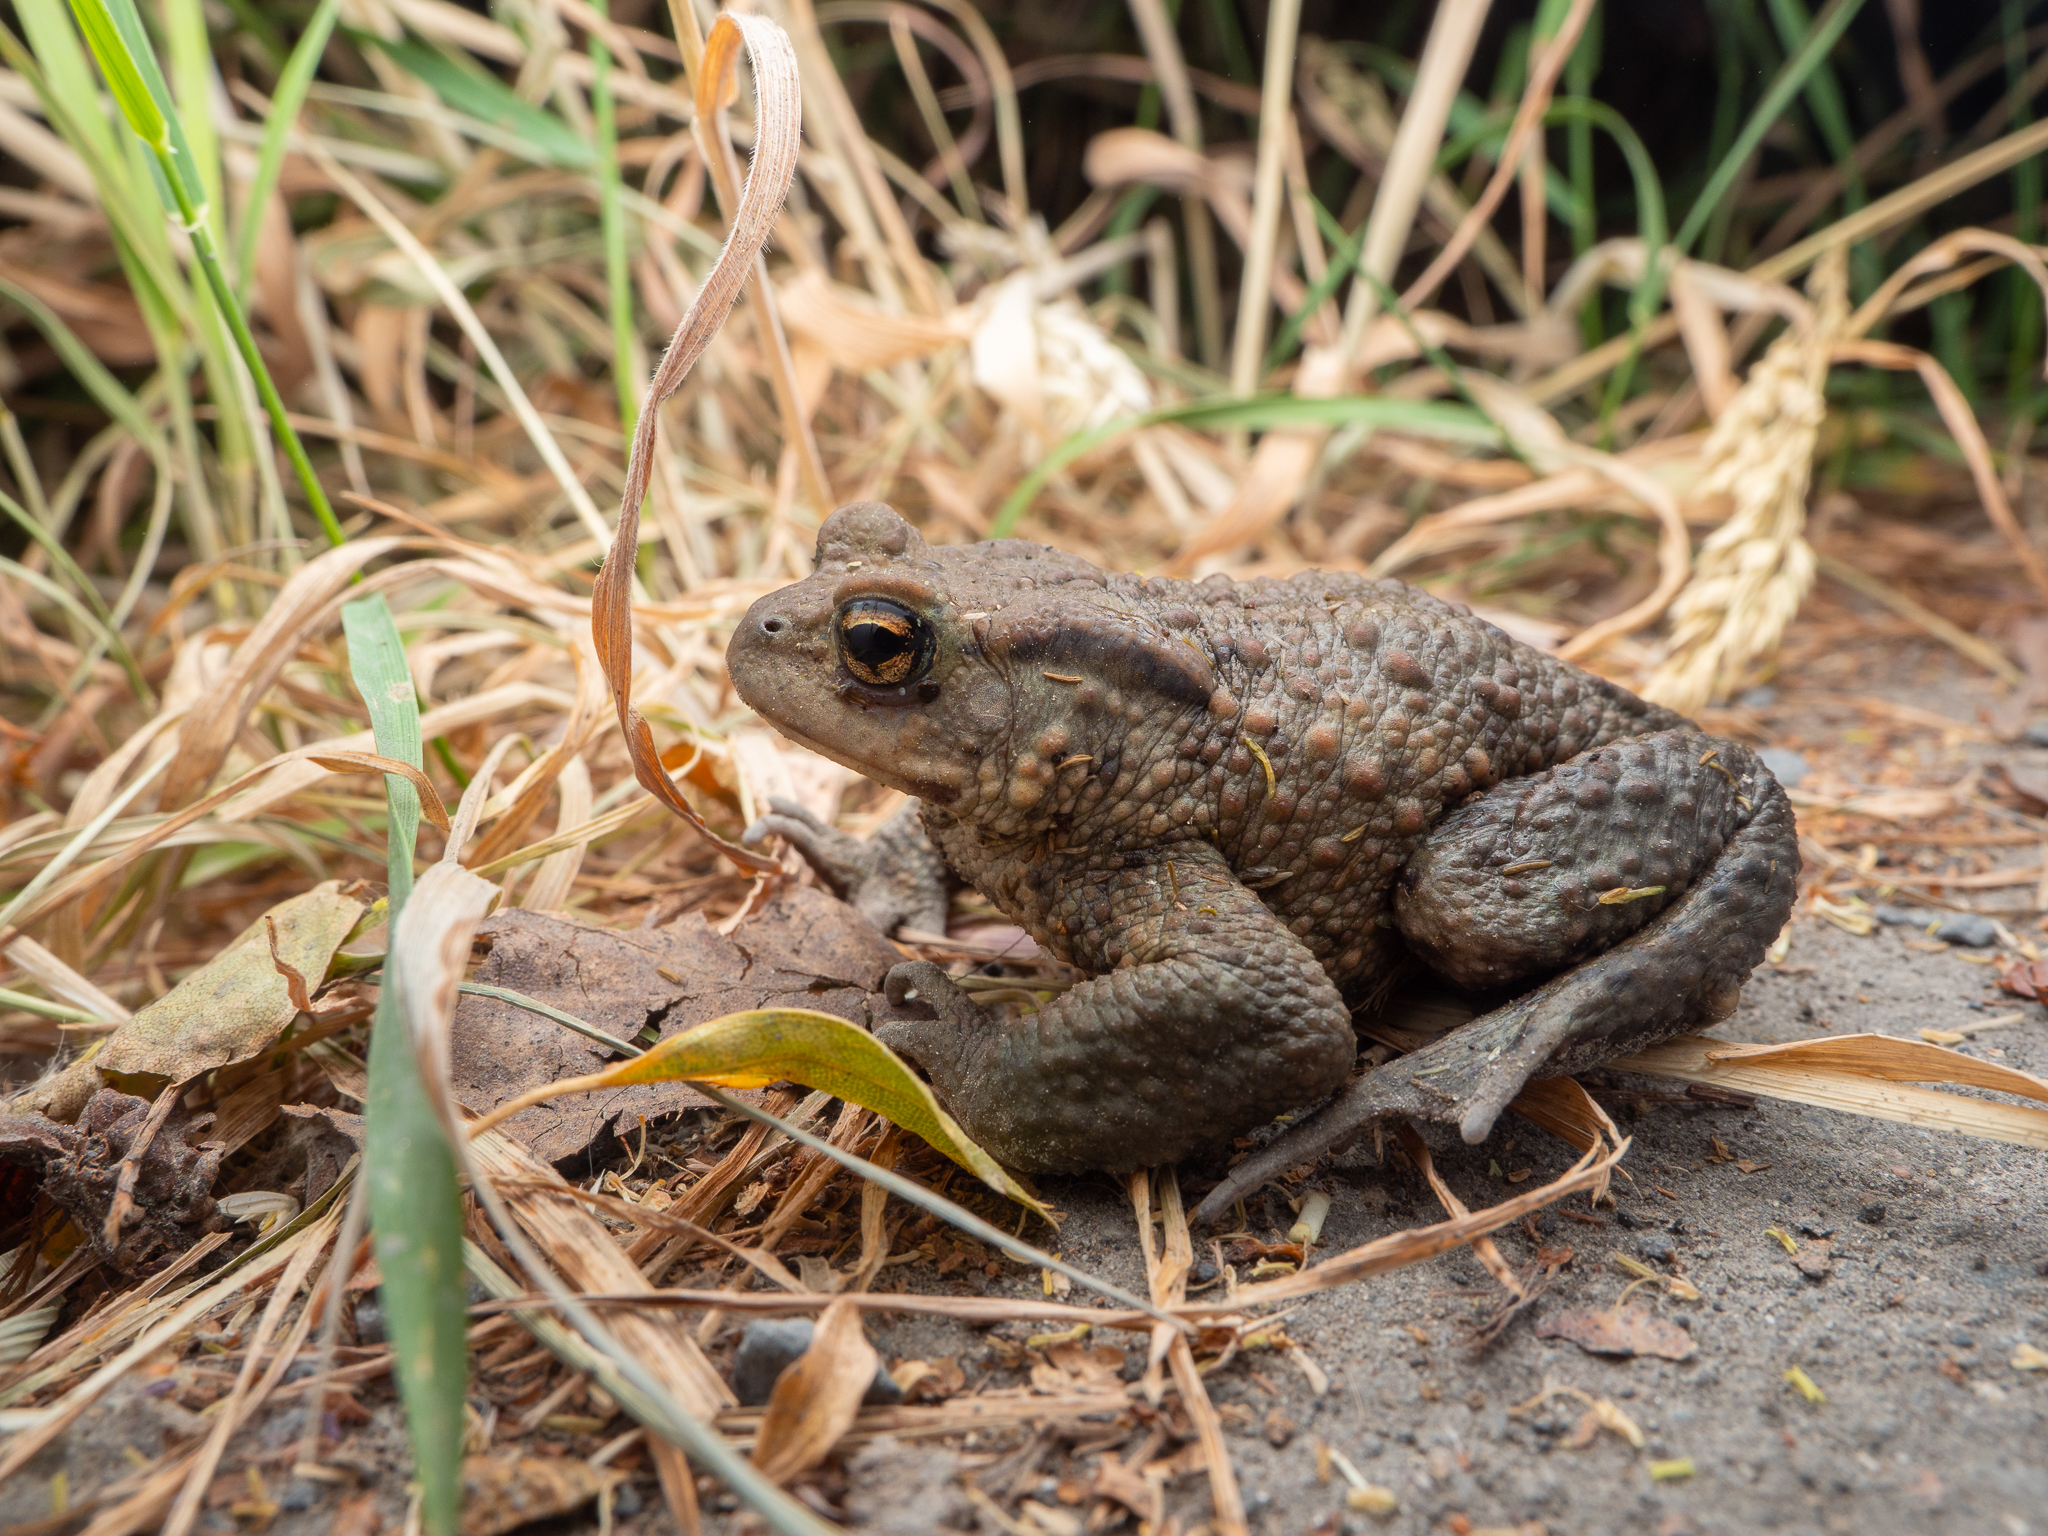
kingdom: Animalia
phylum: Chordata
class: Amphibia
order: Anura
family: Bufonidae
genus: Bufo
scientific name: Bufo bufo
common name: Common toad
